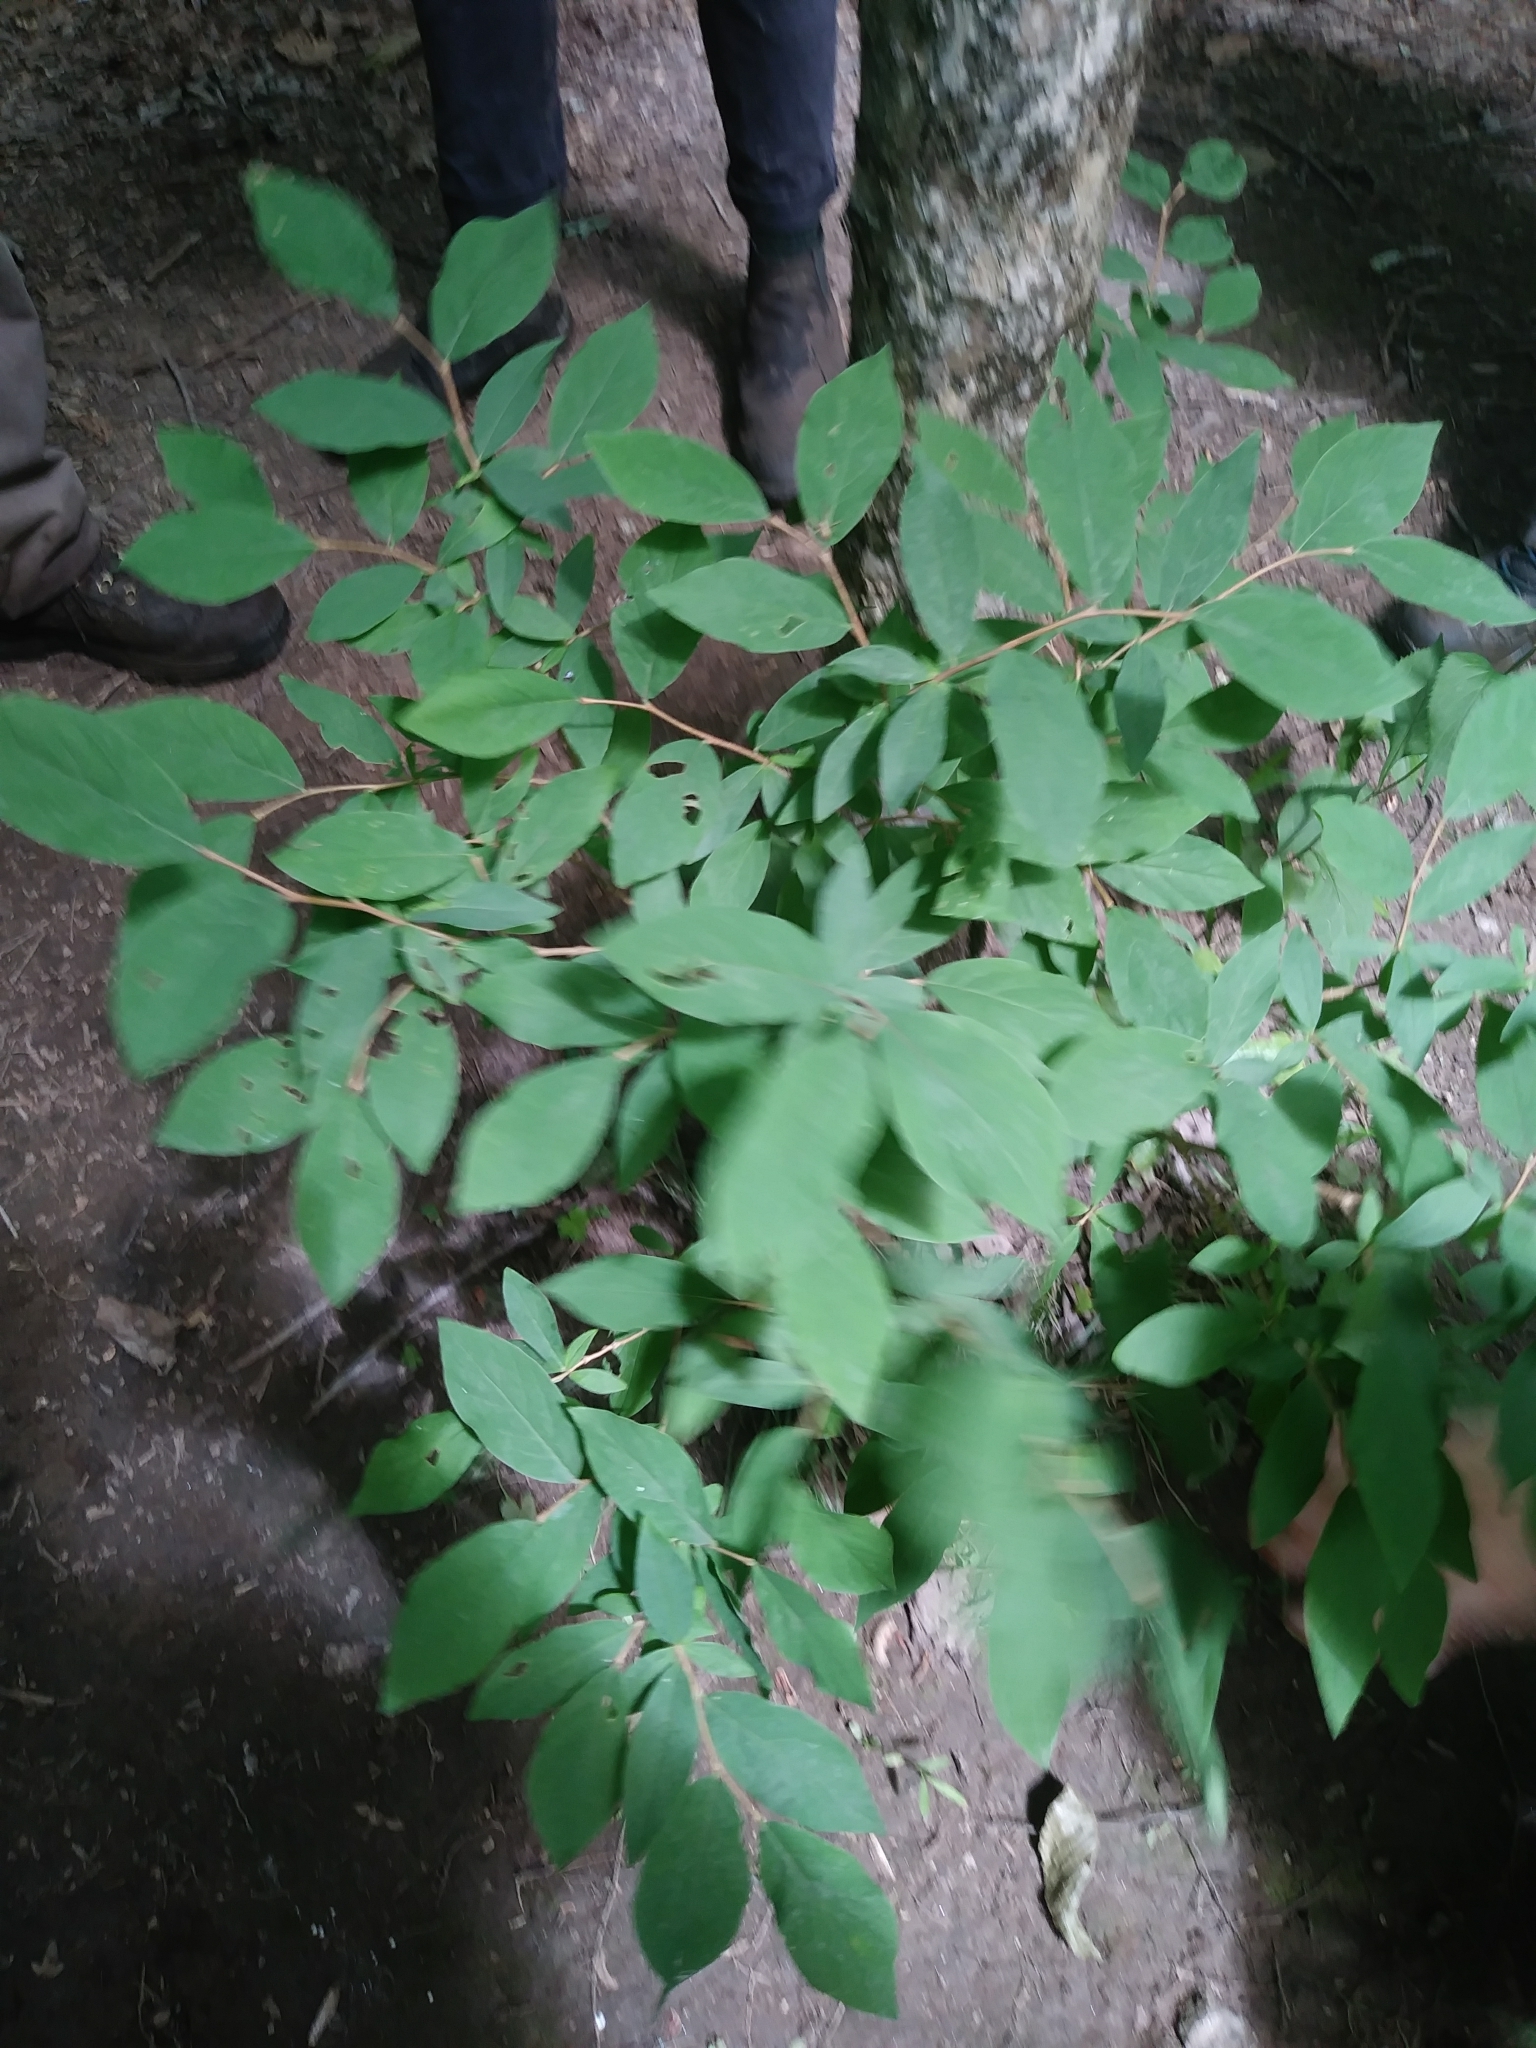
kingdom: Plantae
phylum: Tracheophyta
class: Magnoliopsida
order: Malvales
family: Thymelaeaceae
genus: Dirca
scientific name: Dirca palustris
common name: Leatherwood
